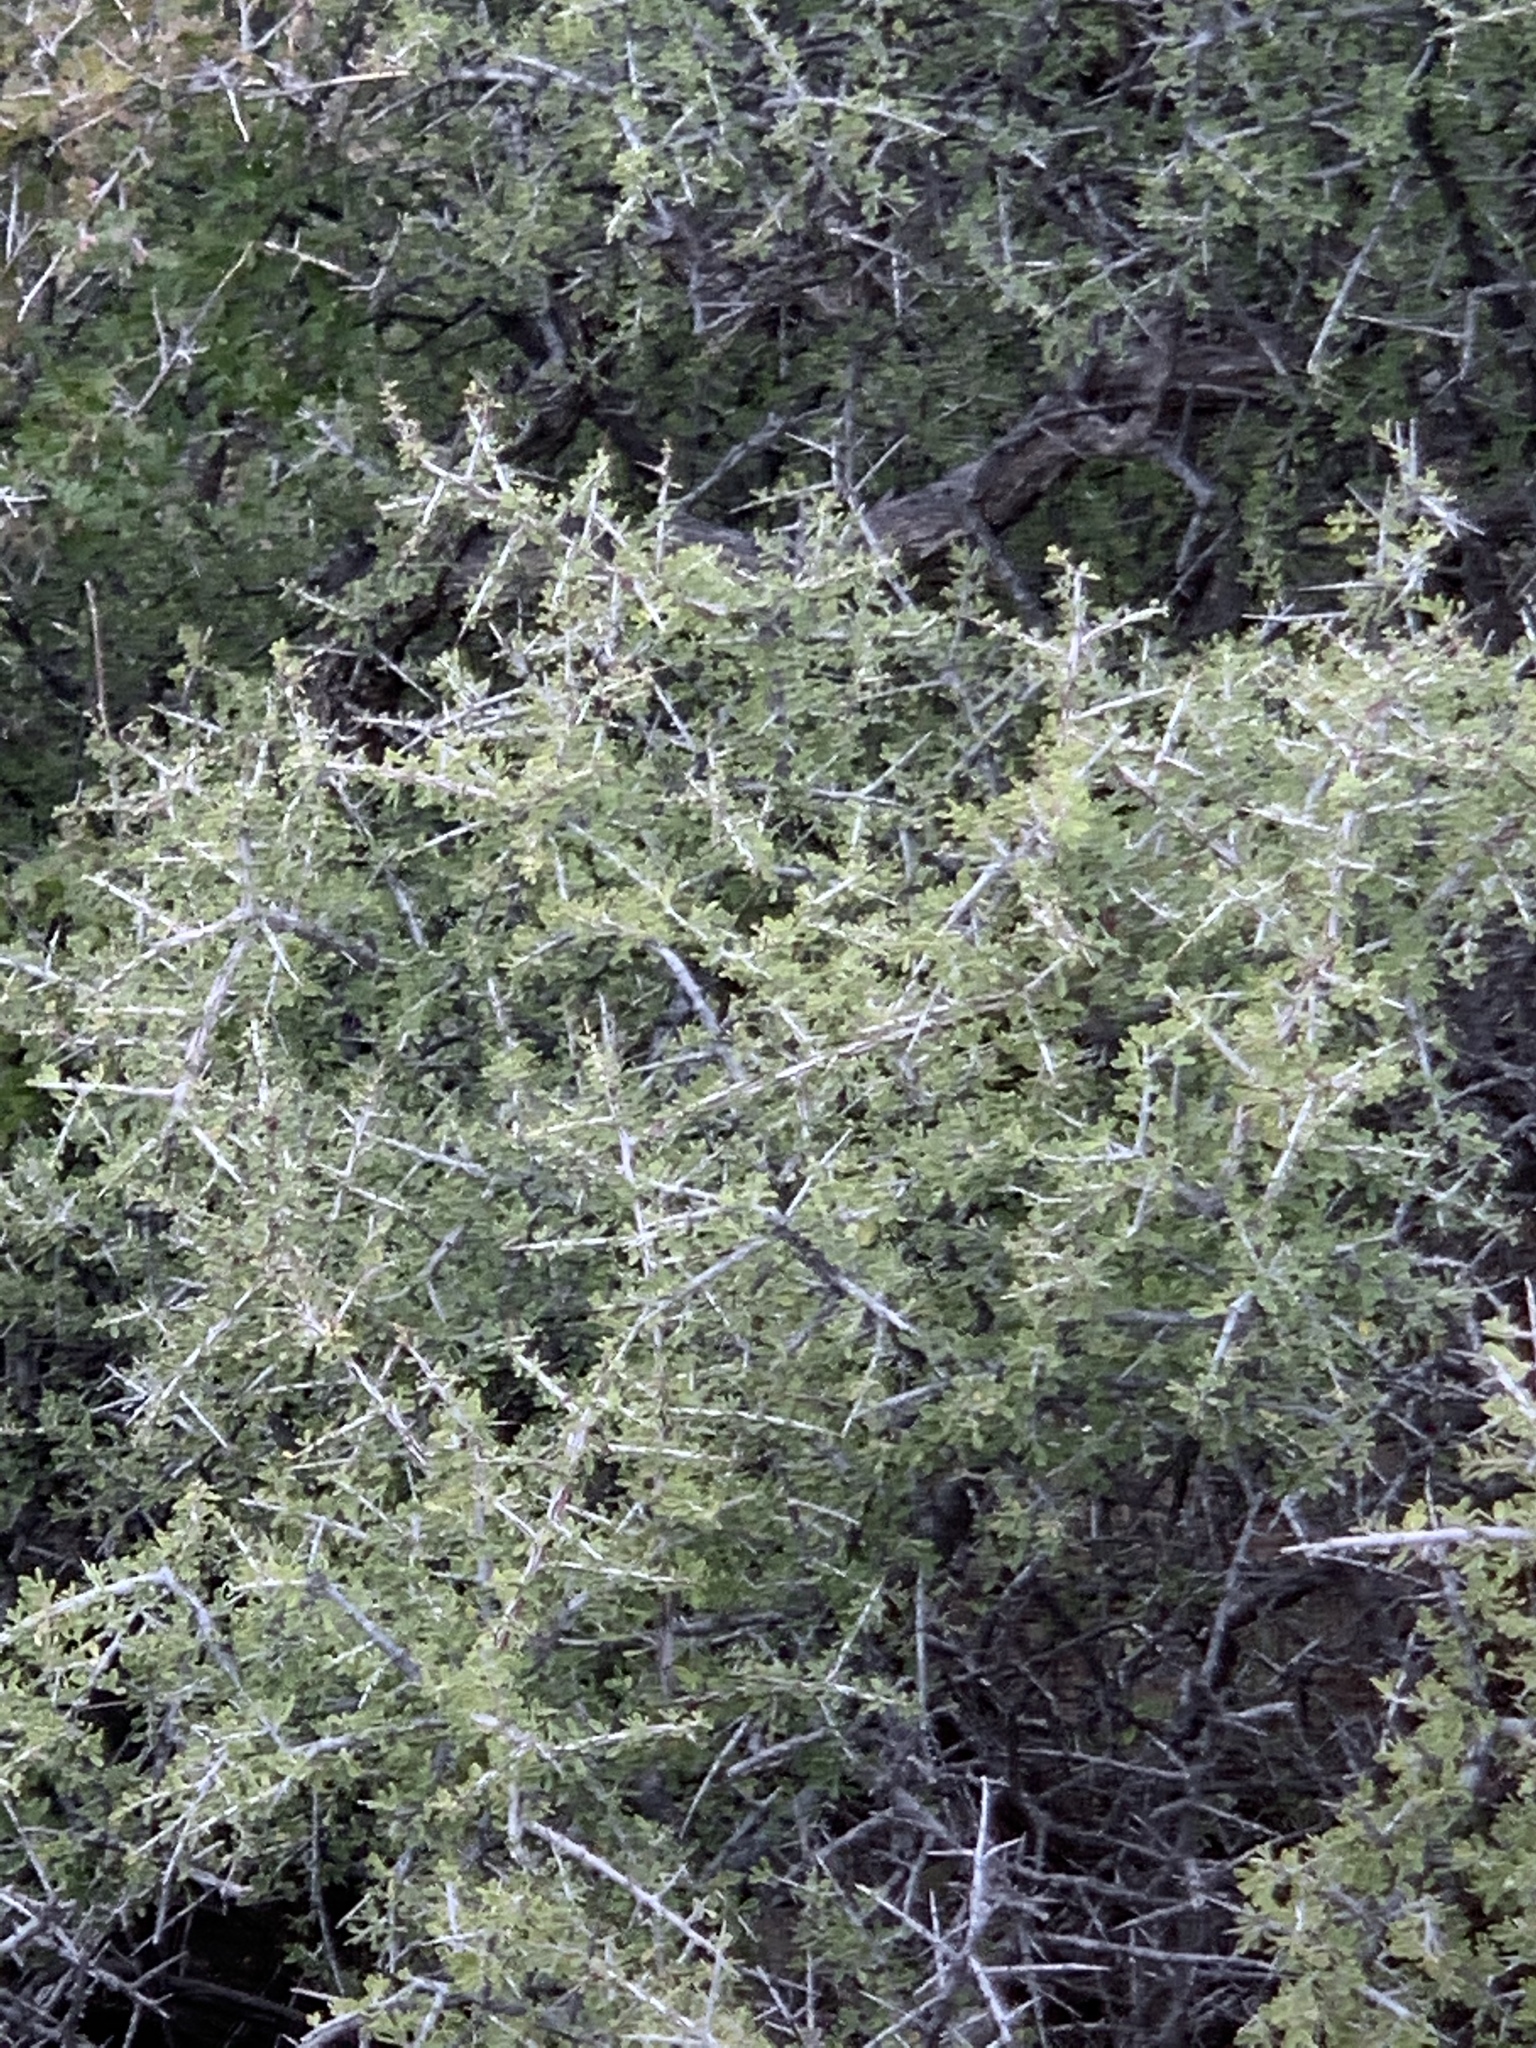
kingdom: Plantae
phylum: Tracheophyta
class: Magnoliopsida
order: Rosales
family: Rhamnaceae
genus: Condalia
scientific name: Condalia warnockii
